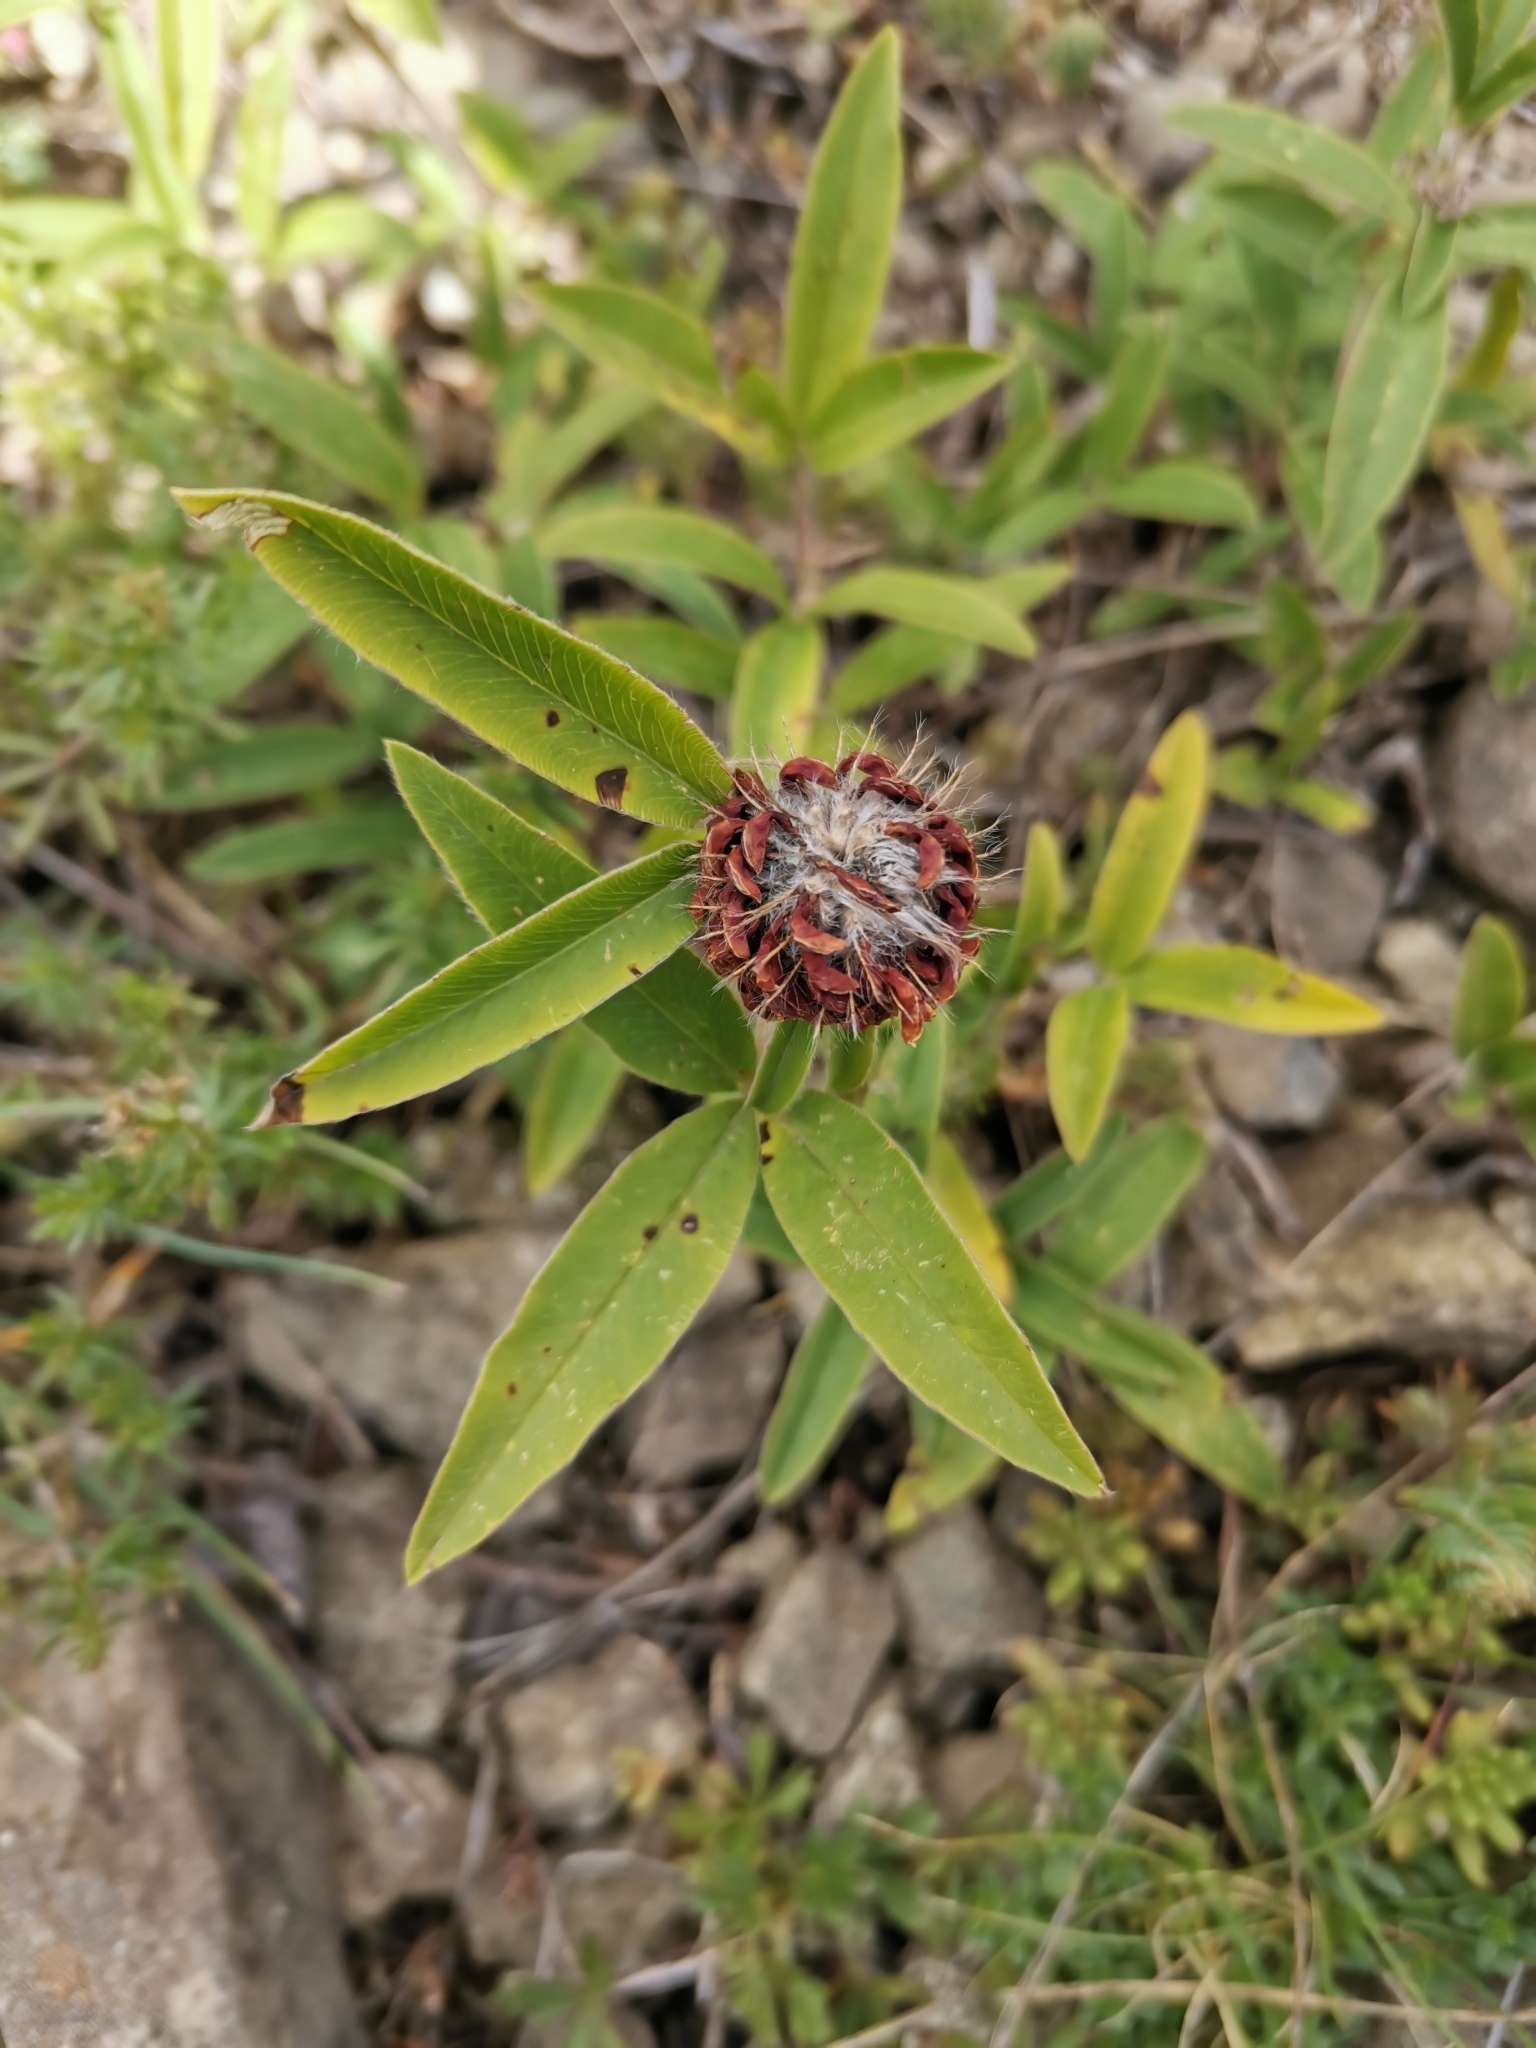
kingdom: Plantae
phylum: Tracheophyta
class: Magnoliopsida
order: Fabales
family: Fabaceae
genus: Trifolium
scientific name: Trifolium alpestre
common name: Owl-head clover
